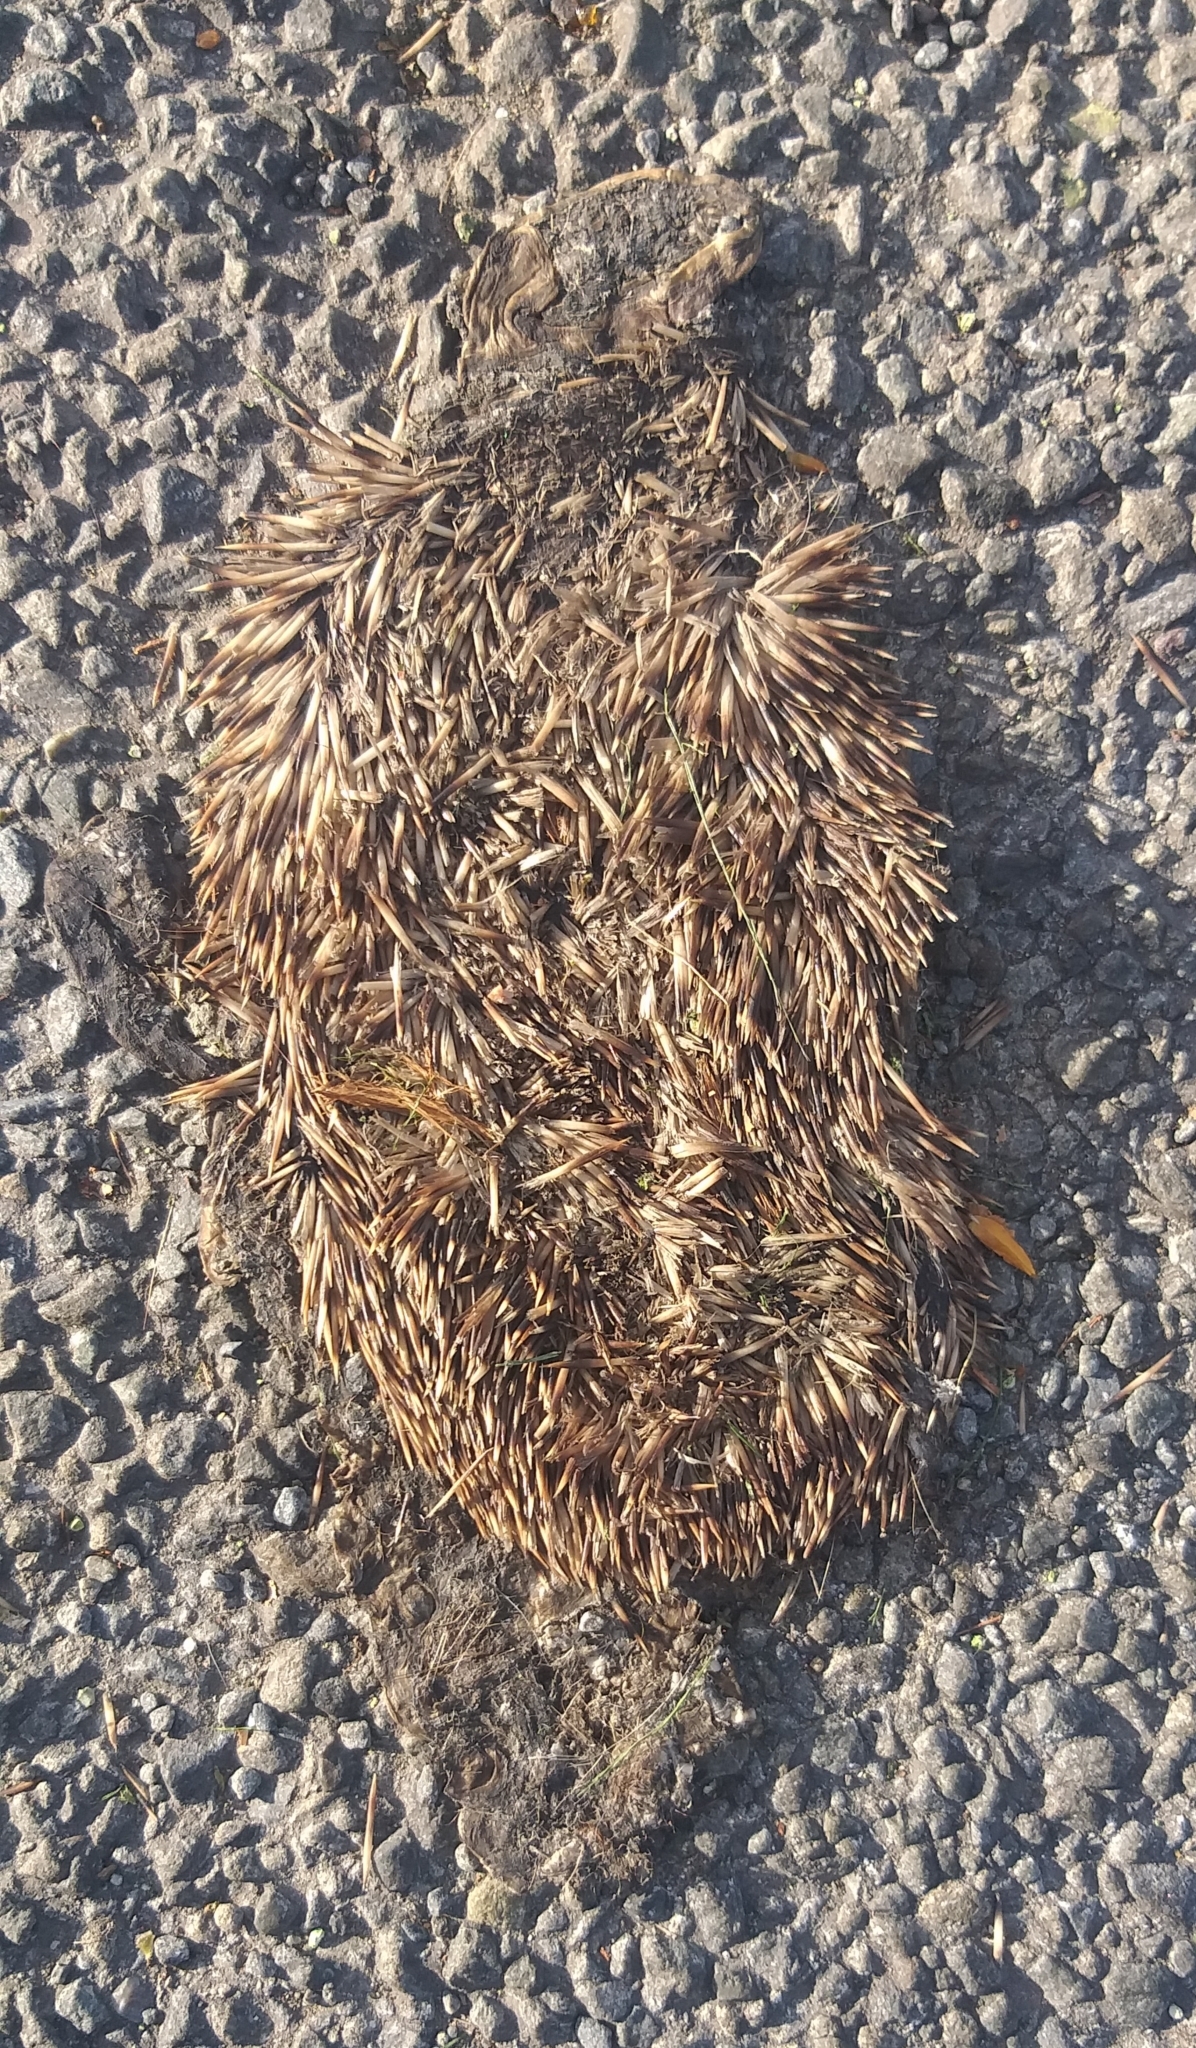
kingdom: Animalia
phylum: Chordata
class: Mammalia
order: Erinaceomorpha
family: Erinaceidae
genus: Erinaceus
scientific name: Erinaceus europaeus
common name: West european hedgehog
